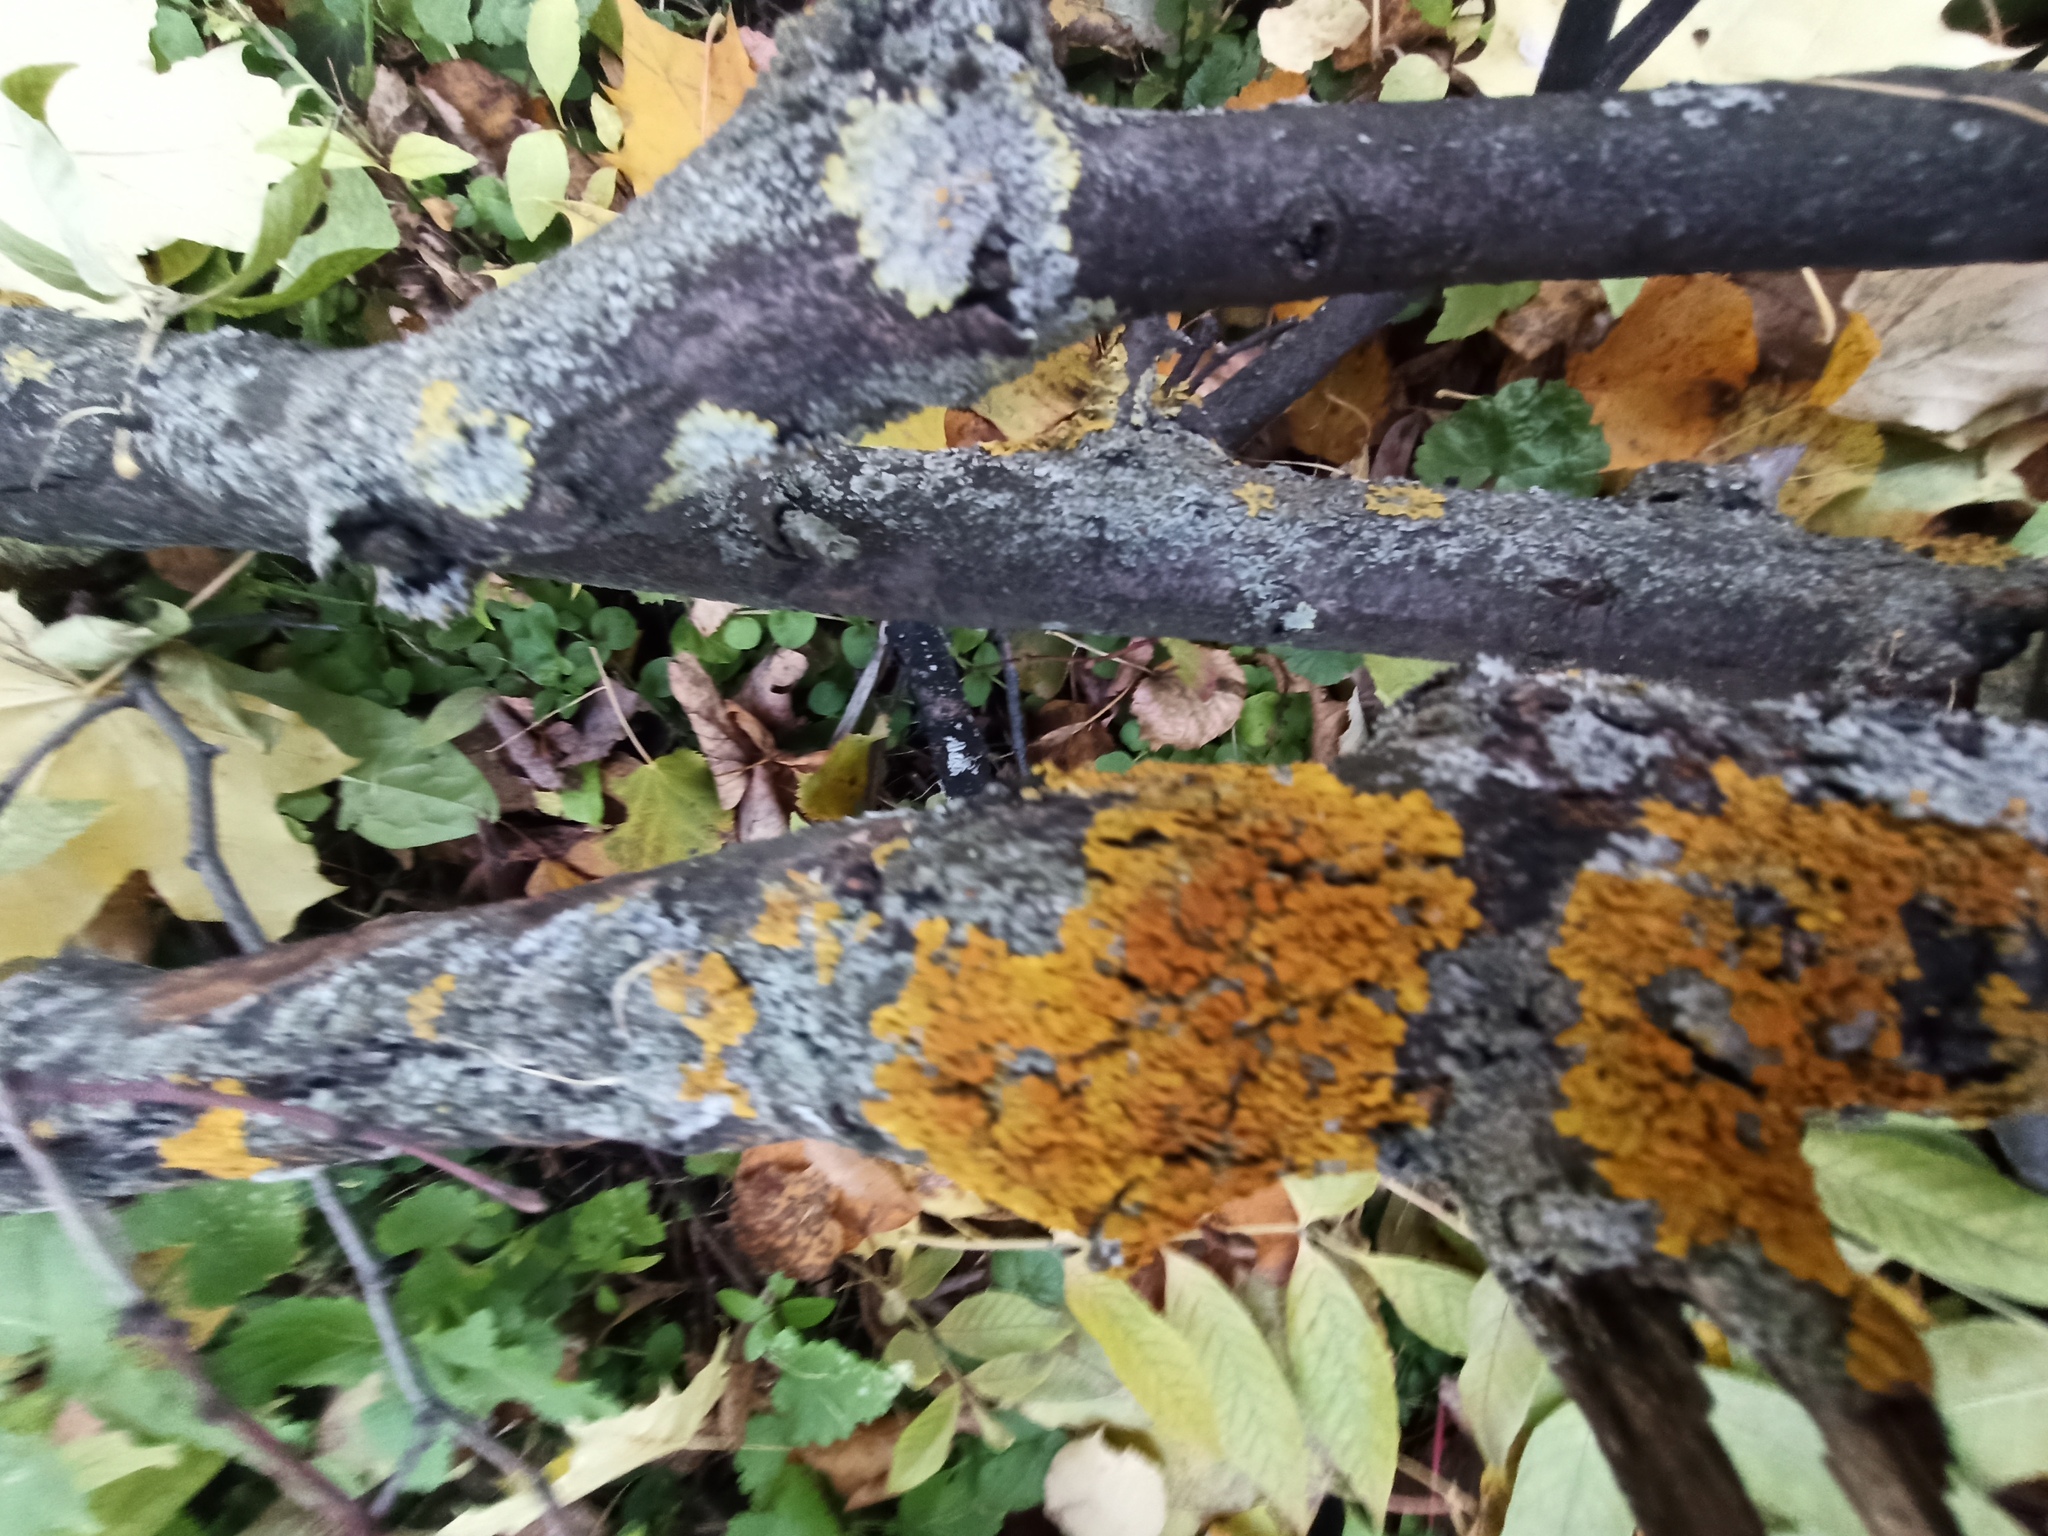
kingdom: Fungi
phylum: Ascomycota
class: Lecanoromycetes
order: Teloschistales
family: Teloschistaceae
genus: Xanthoria
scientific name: Xanthoria parietina
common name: Common orange lichen
